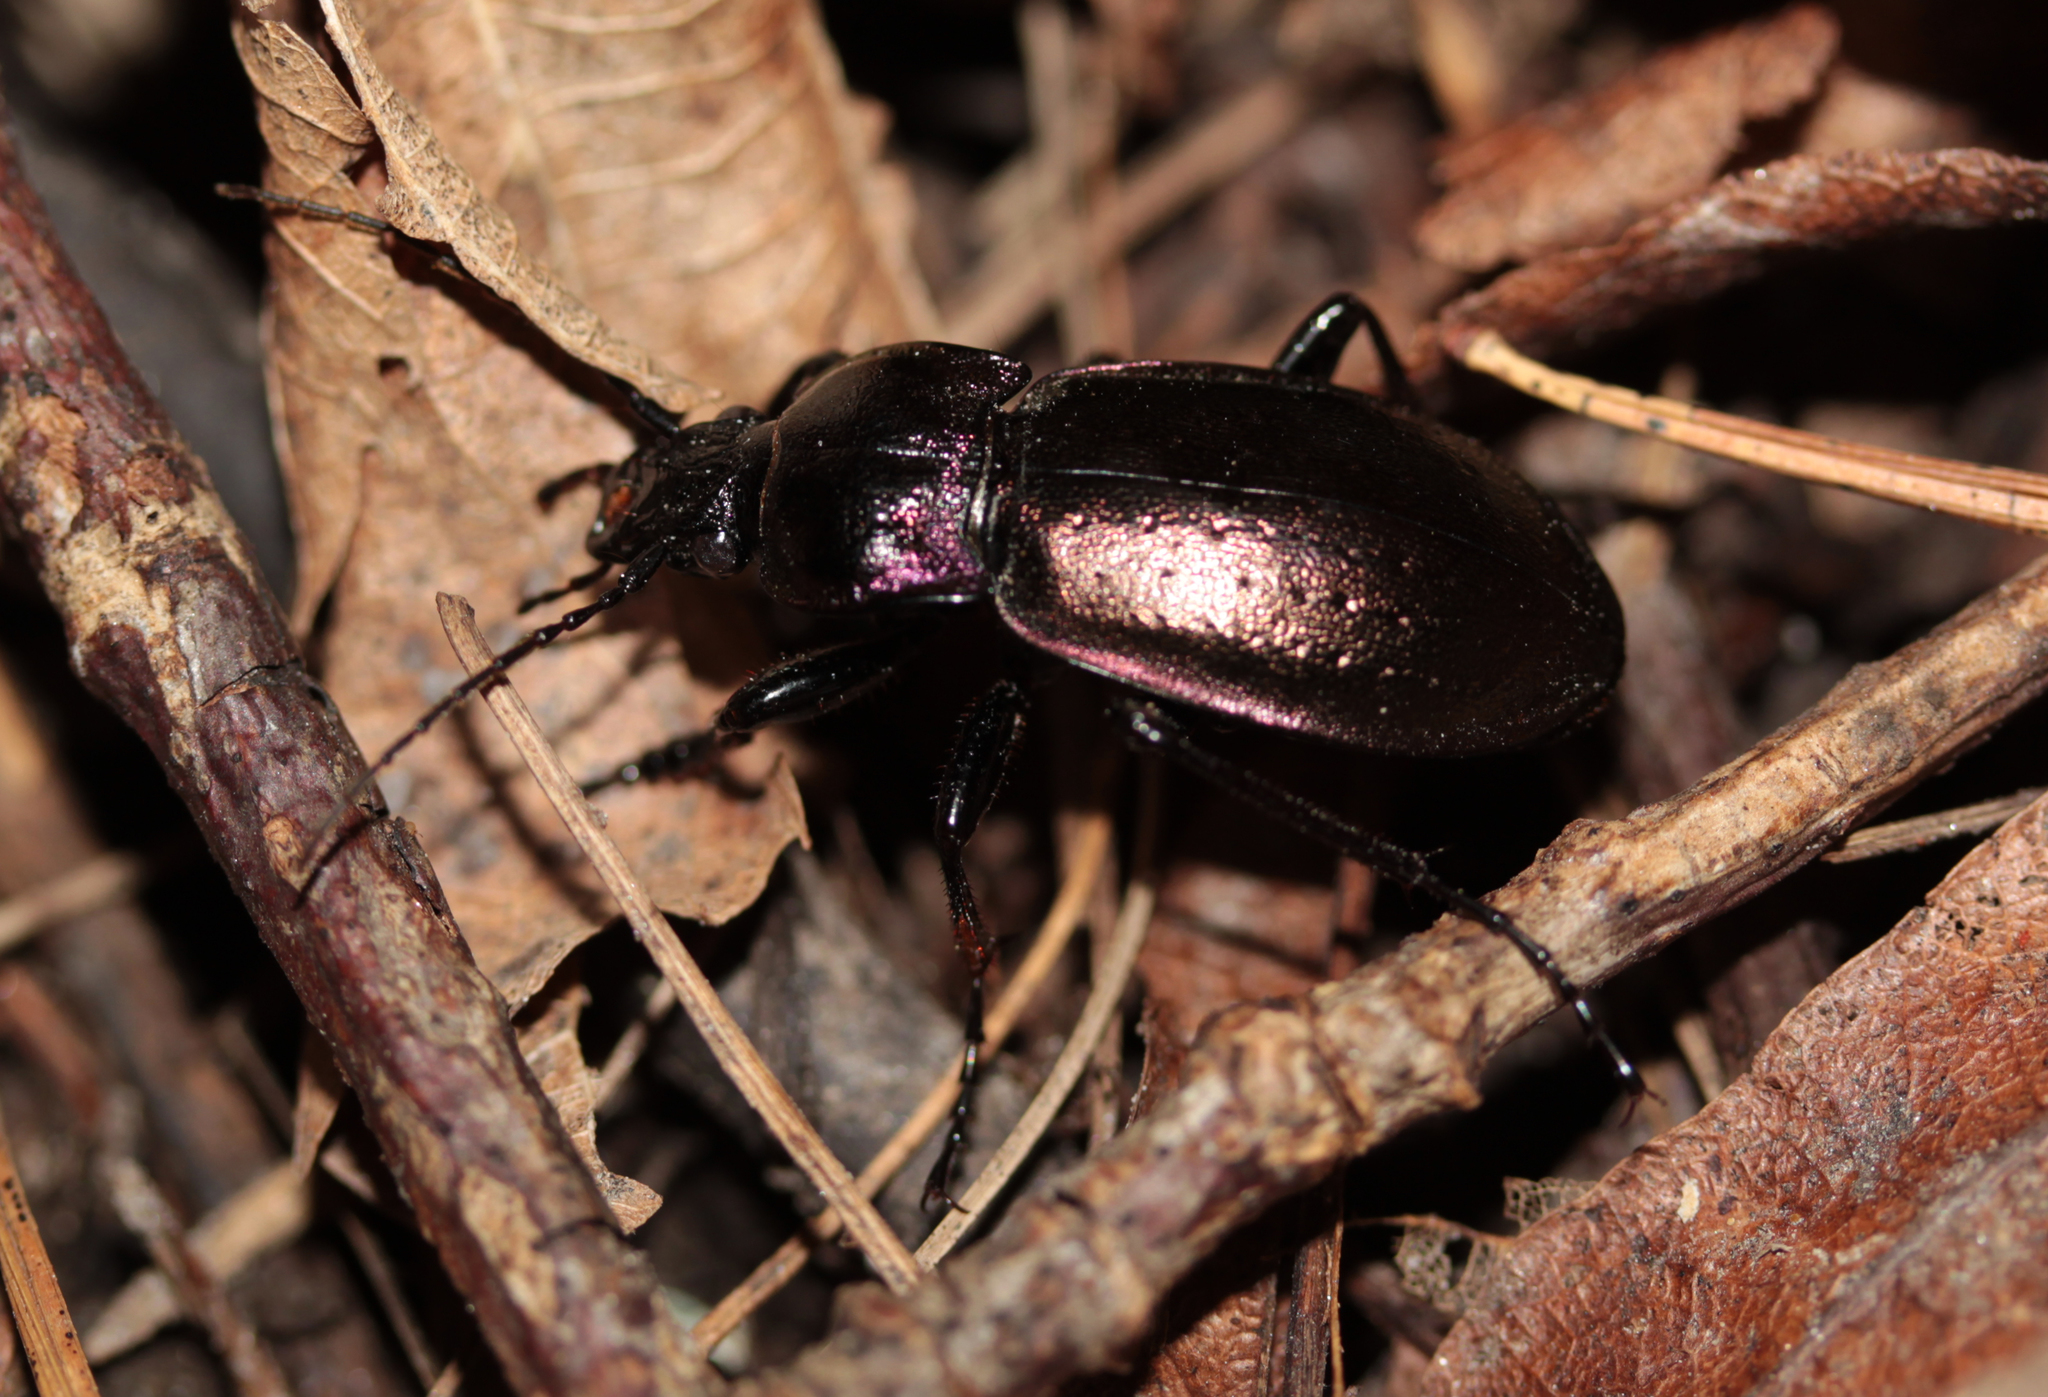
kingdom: Animalia
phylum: Arthropoda
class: Insecta
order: Coleoptera
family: Carabidae
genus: Carabus
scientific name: Carabus nemoralis
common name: European ground beetle
